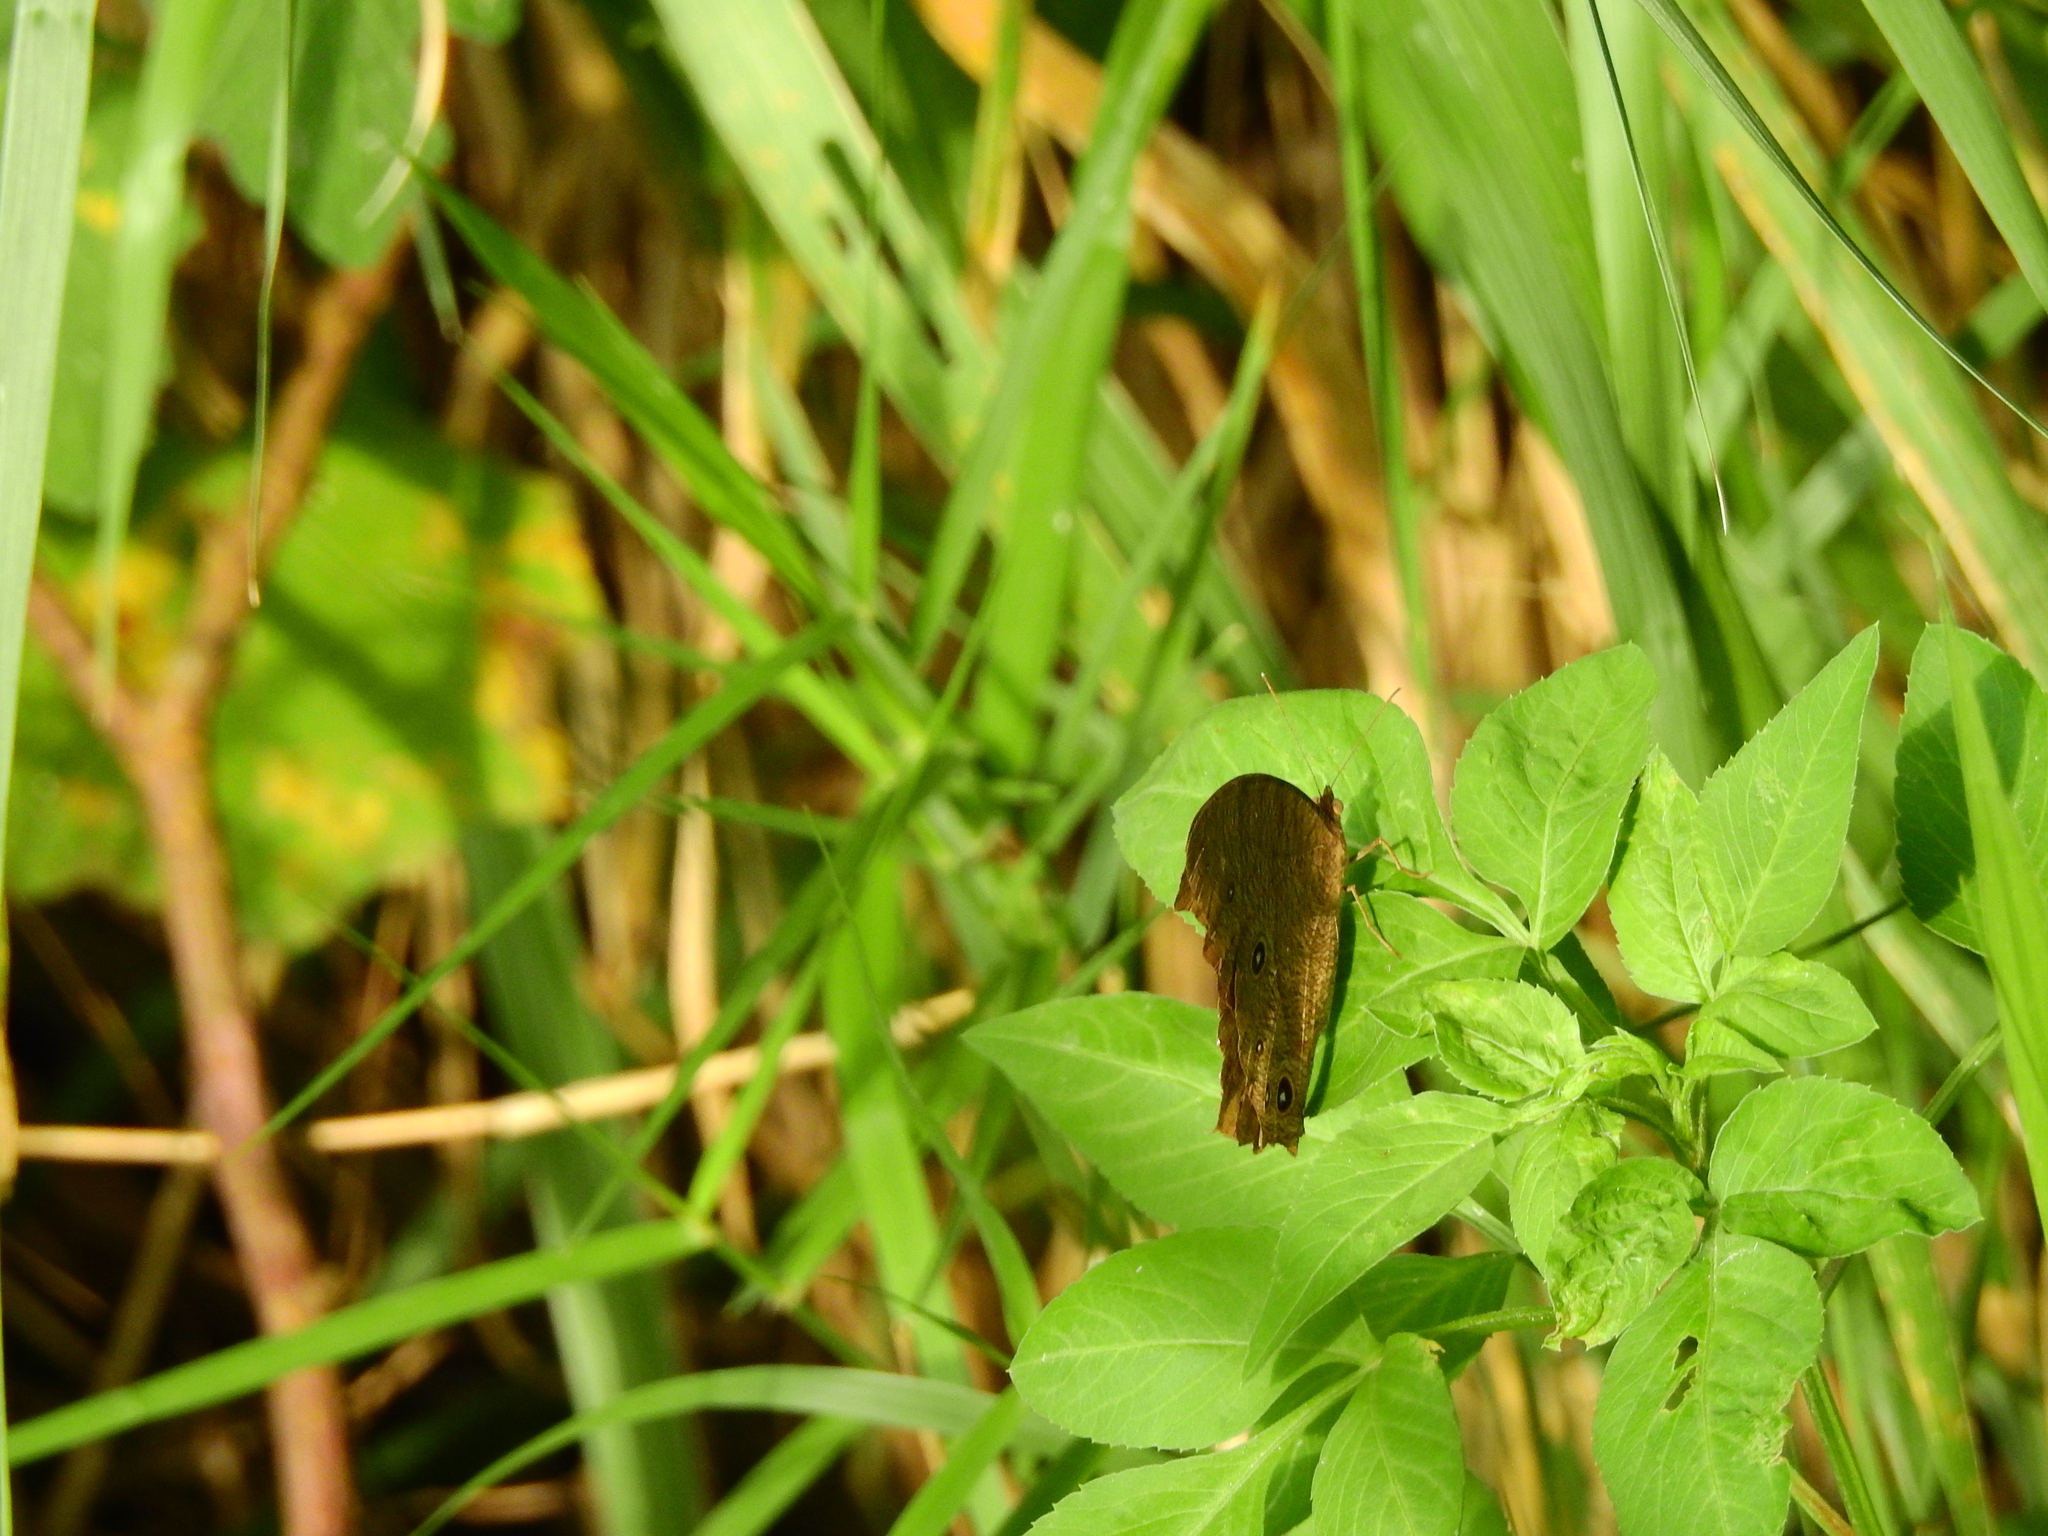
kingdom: Animalia
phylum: Arthropoda
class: Insecta
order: Lepidoptera
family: Nymphalidae
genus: Melanitis
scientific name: Melanitis leda
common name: Twilight brown
